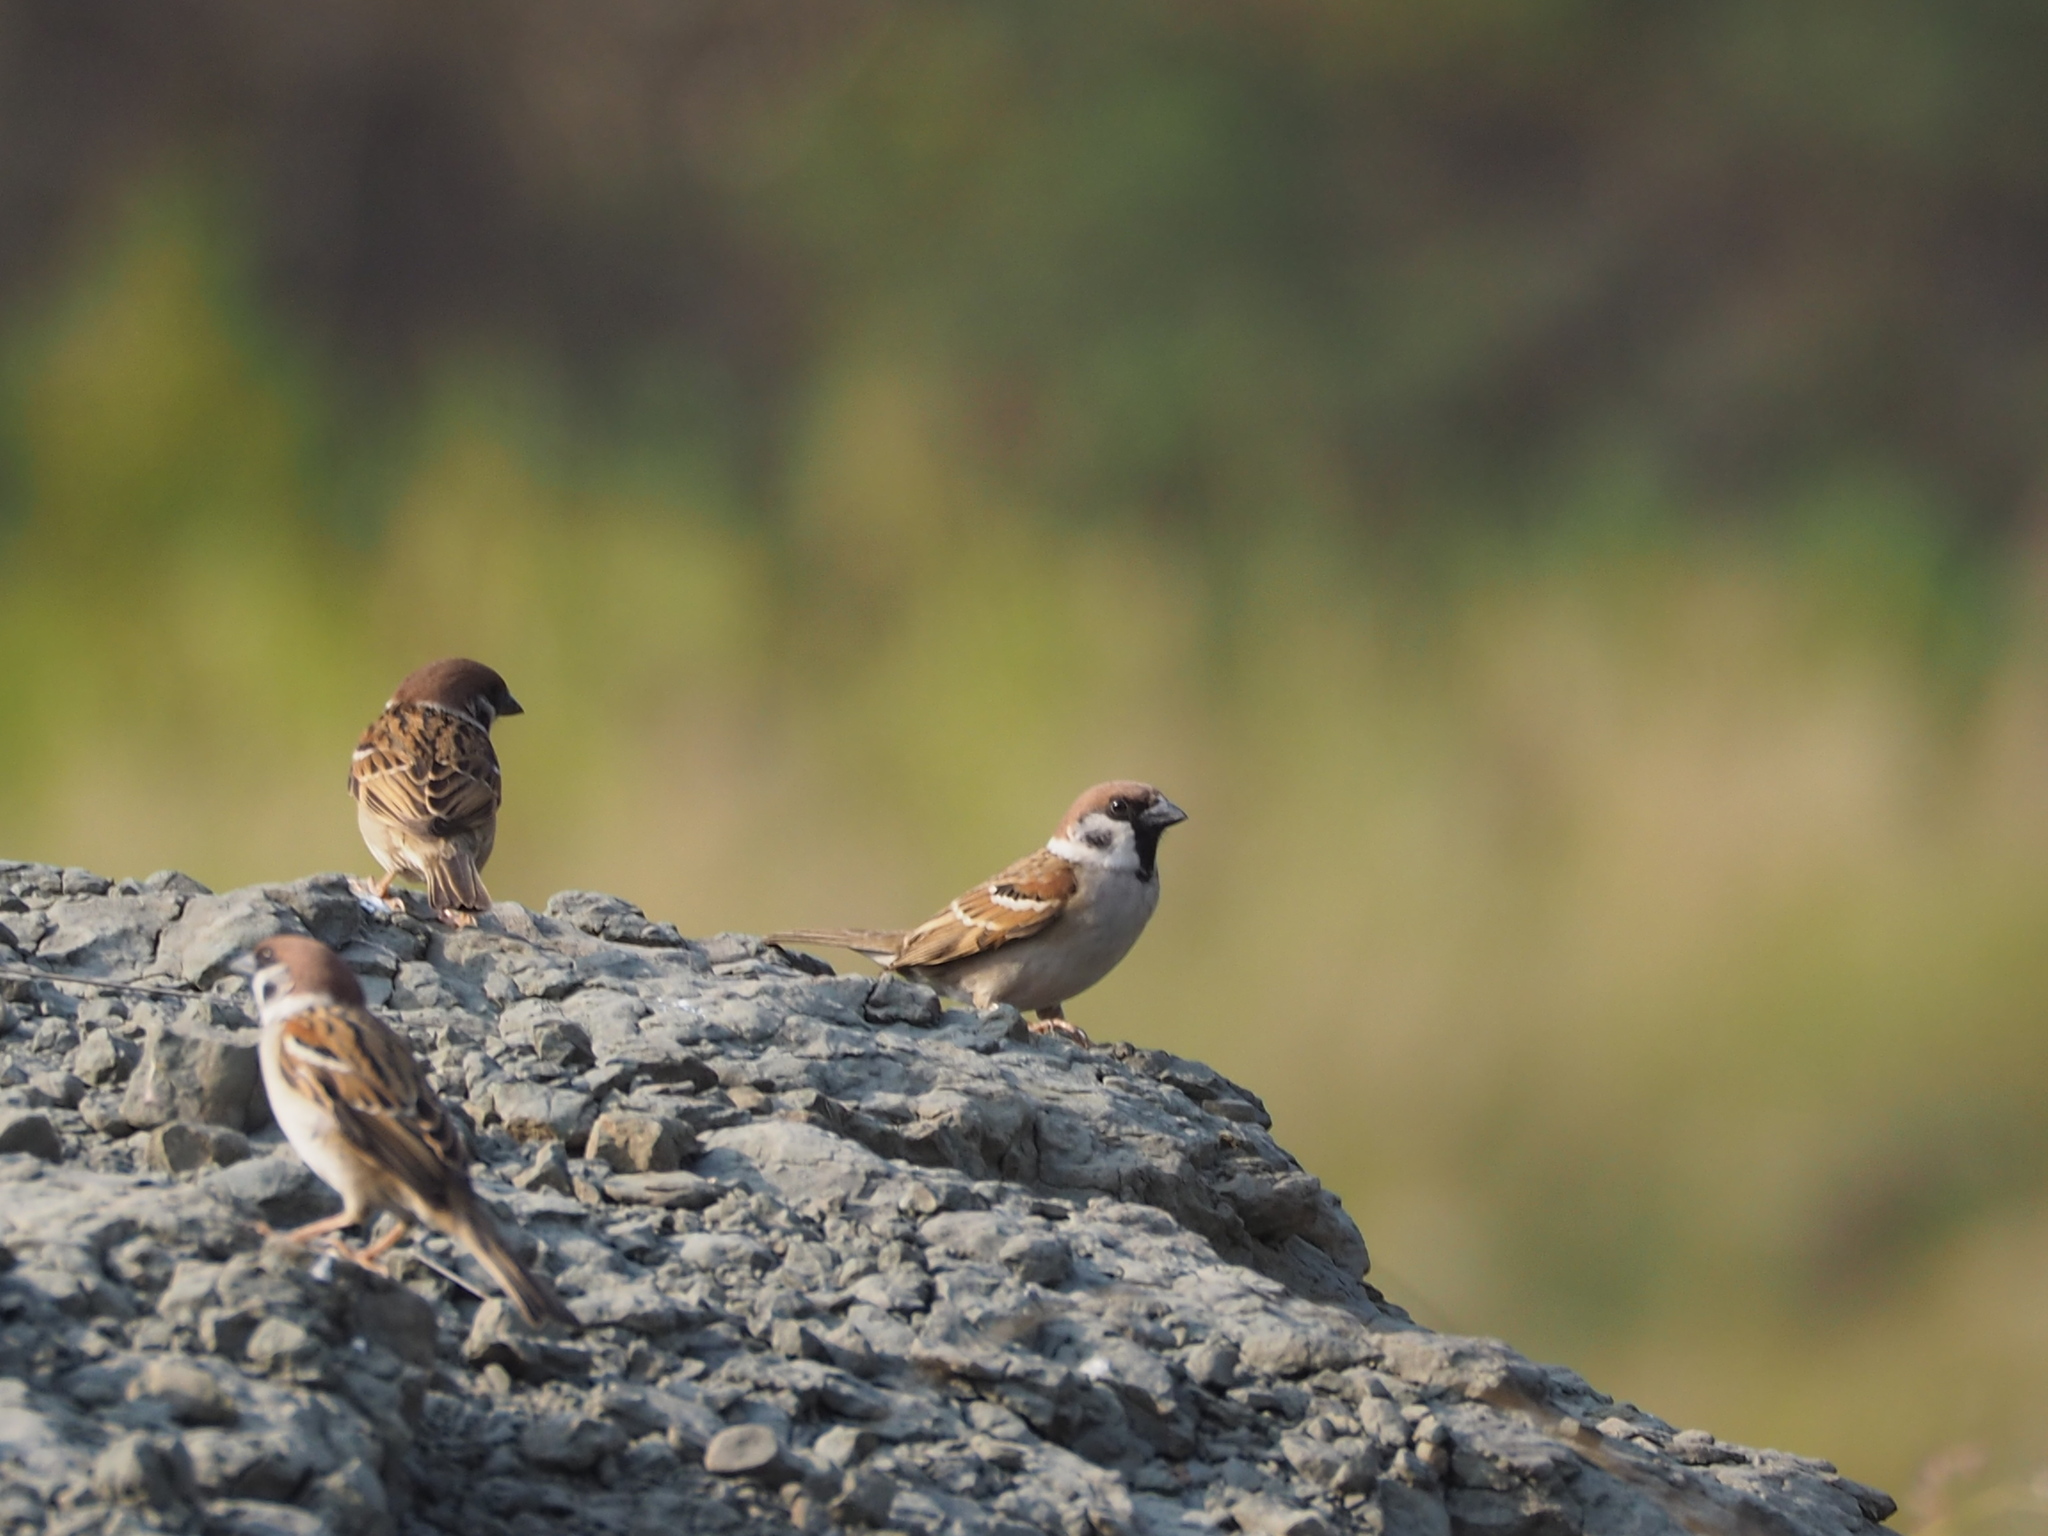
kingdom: Animalia
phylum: Chordata
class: Aves
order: Passeriformes
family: Passeridae
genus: Passer
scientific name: Passer montanus
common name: Eurasian tree sparrow
